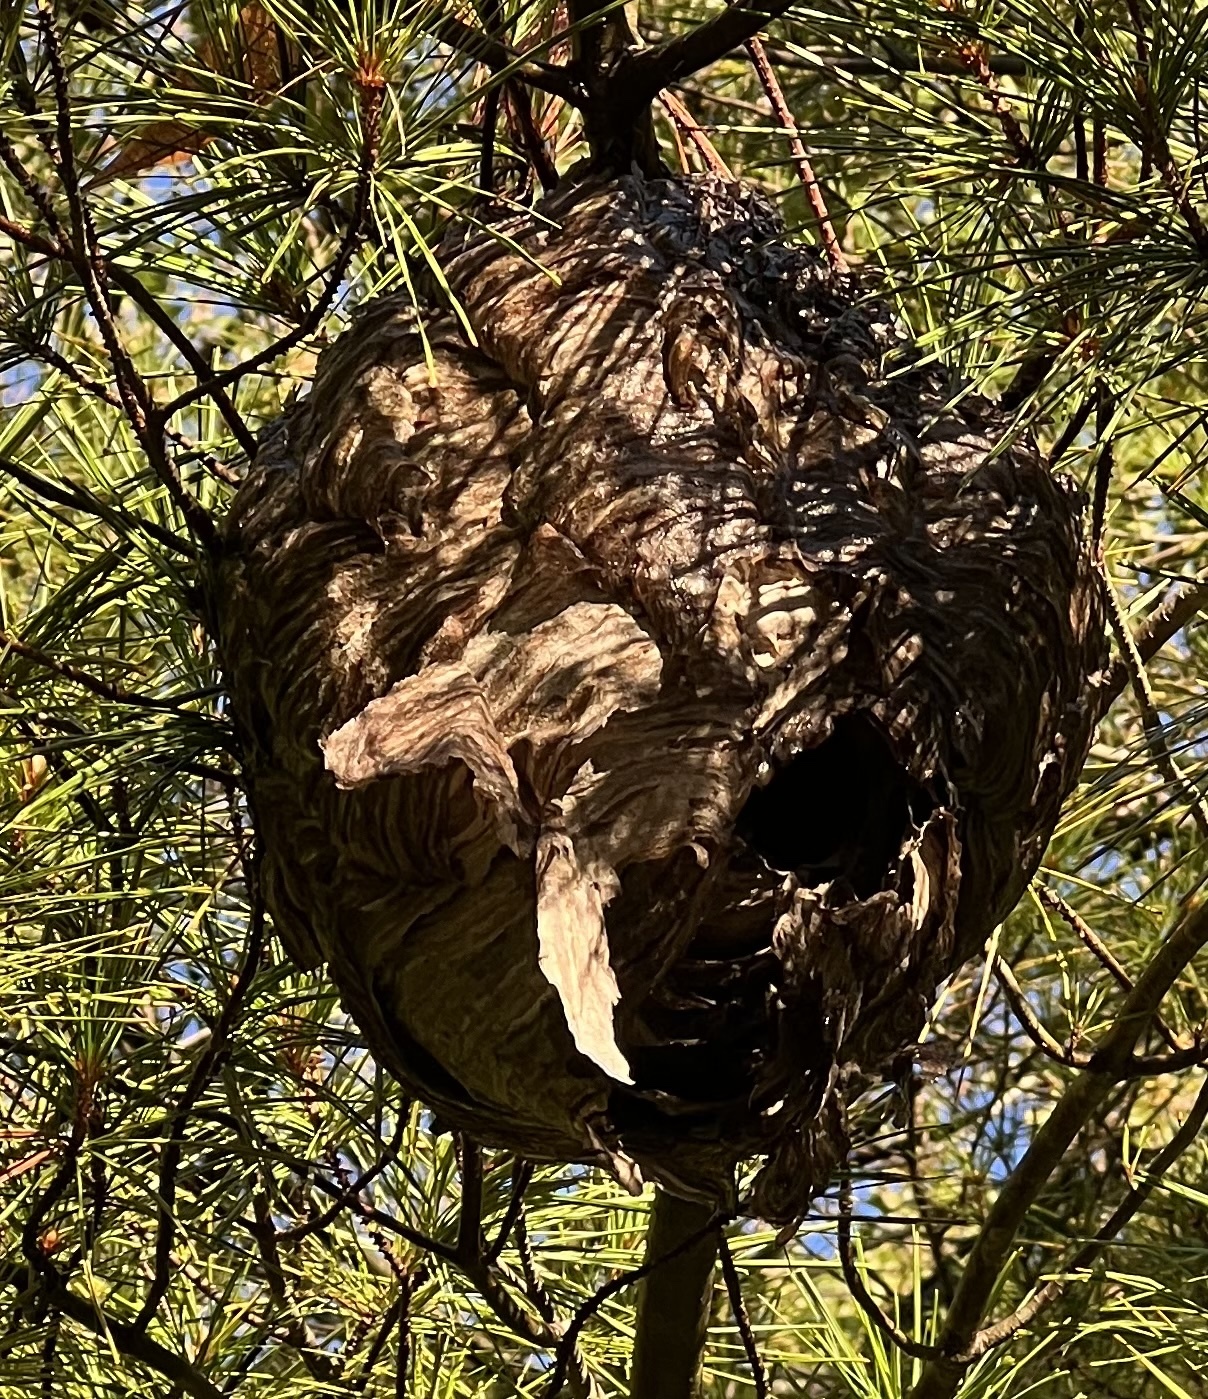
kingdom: Animalia
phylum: Arthropoda
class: Insecta
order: Hymenoptera
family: Vespidae
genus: Dolichovespula
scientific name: Dolichovespula maculata
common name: Bald-faced hornet
